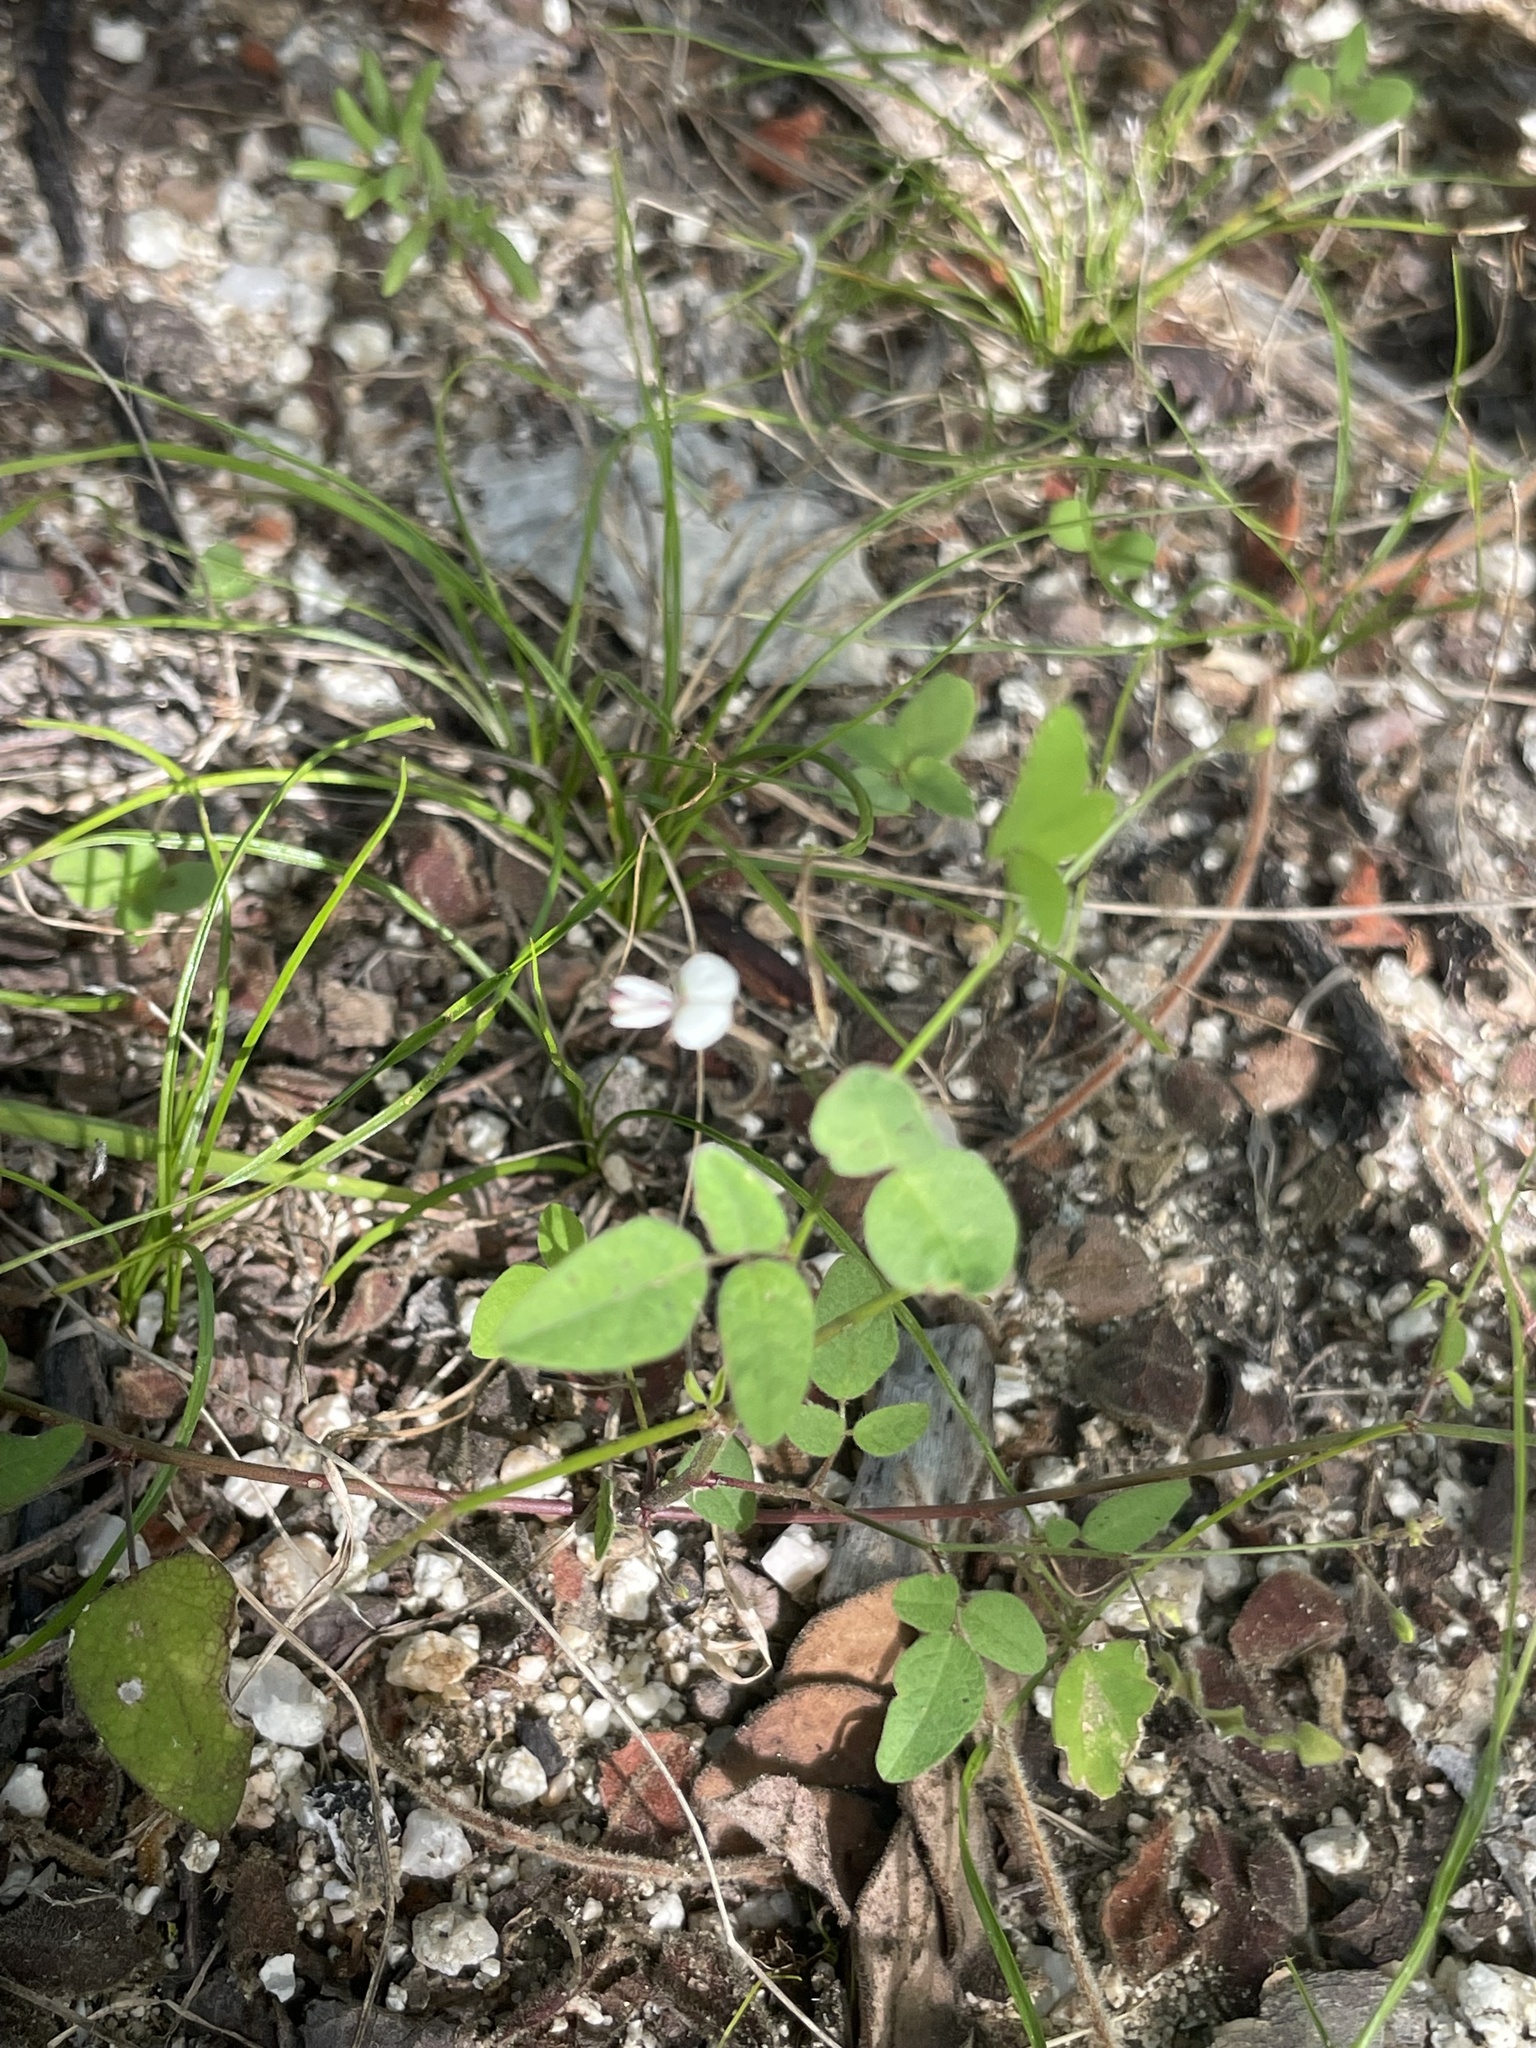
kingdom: Plantae
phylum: Tracheophyta
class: Magnoliopsida
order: Fabales
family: Fabaceae
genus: Desmodium
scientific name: Desmodium procumbens
